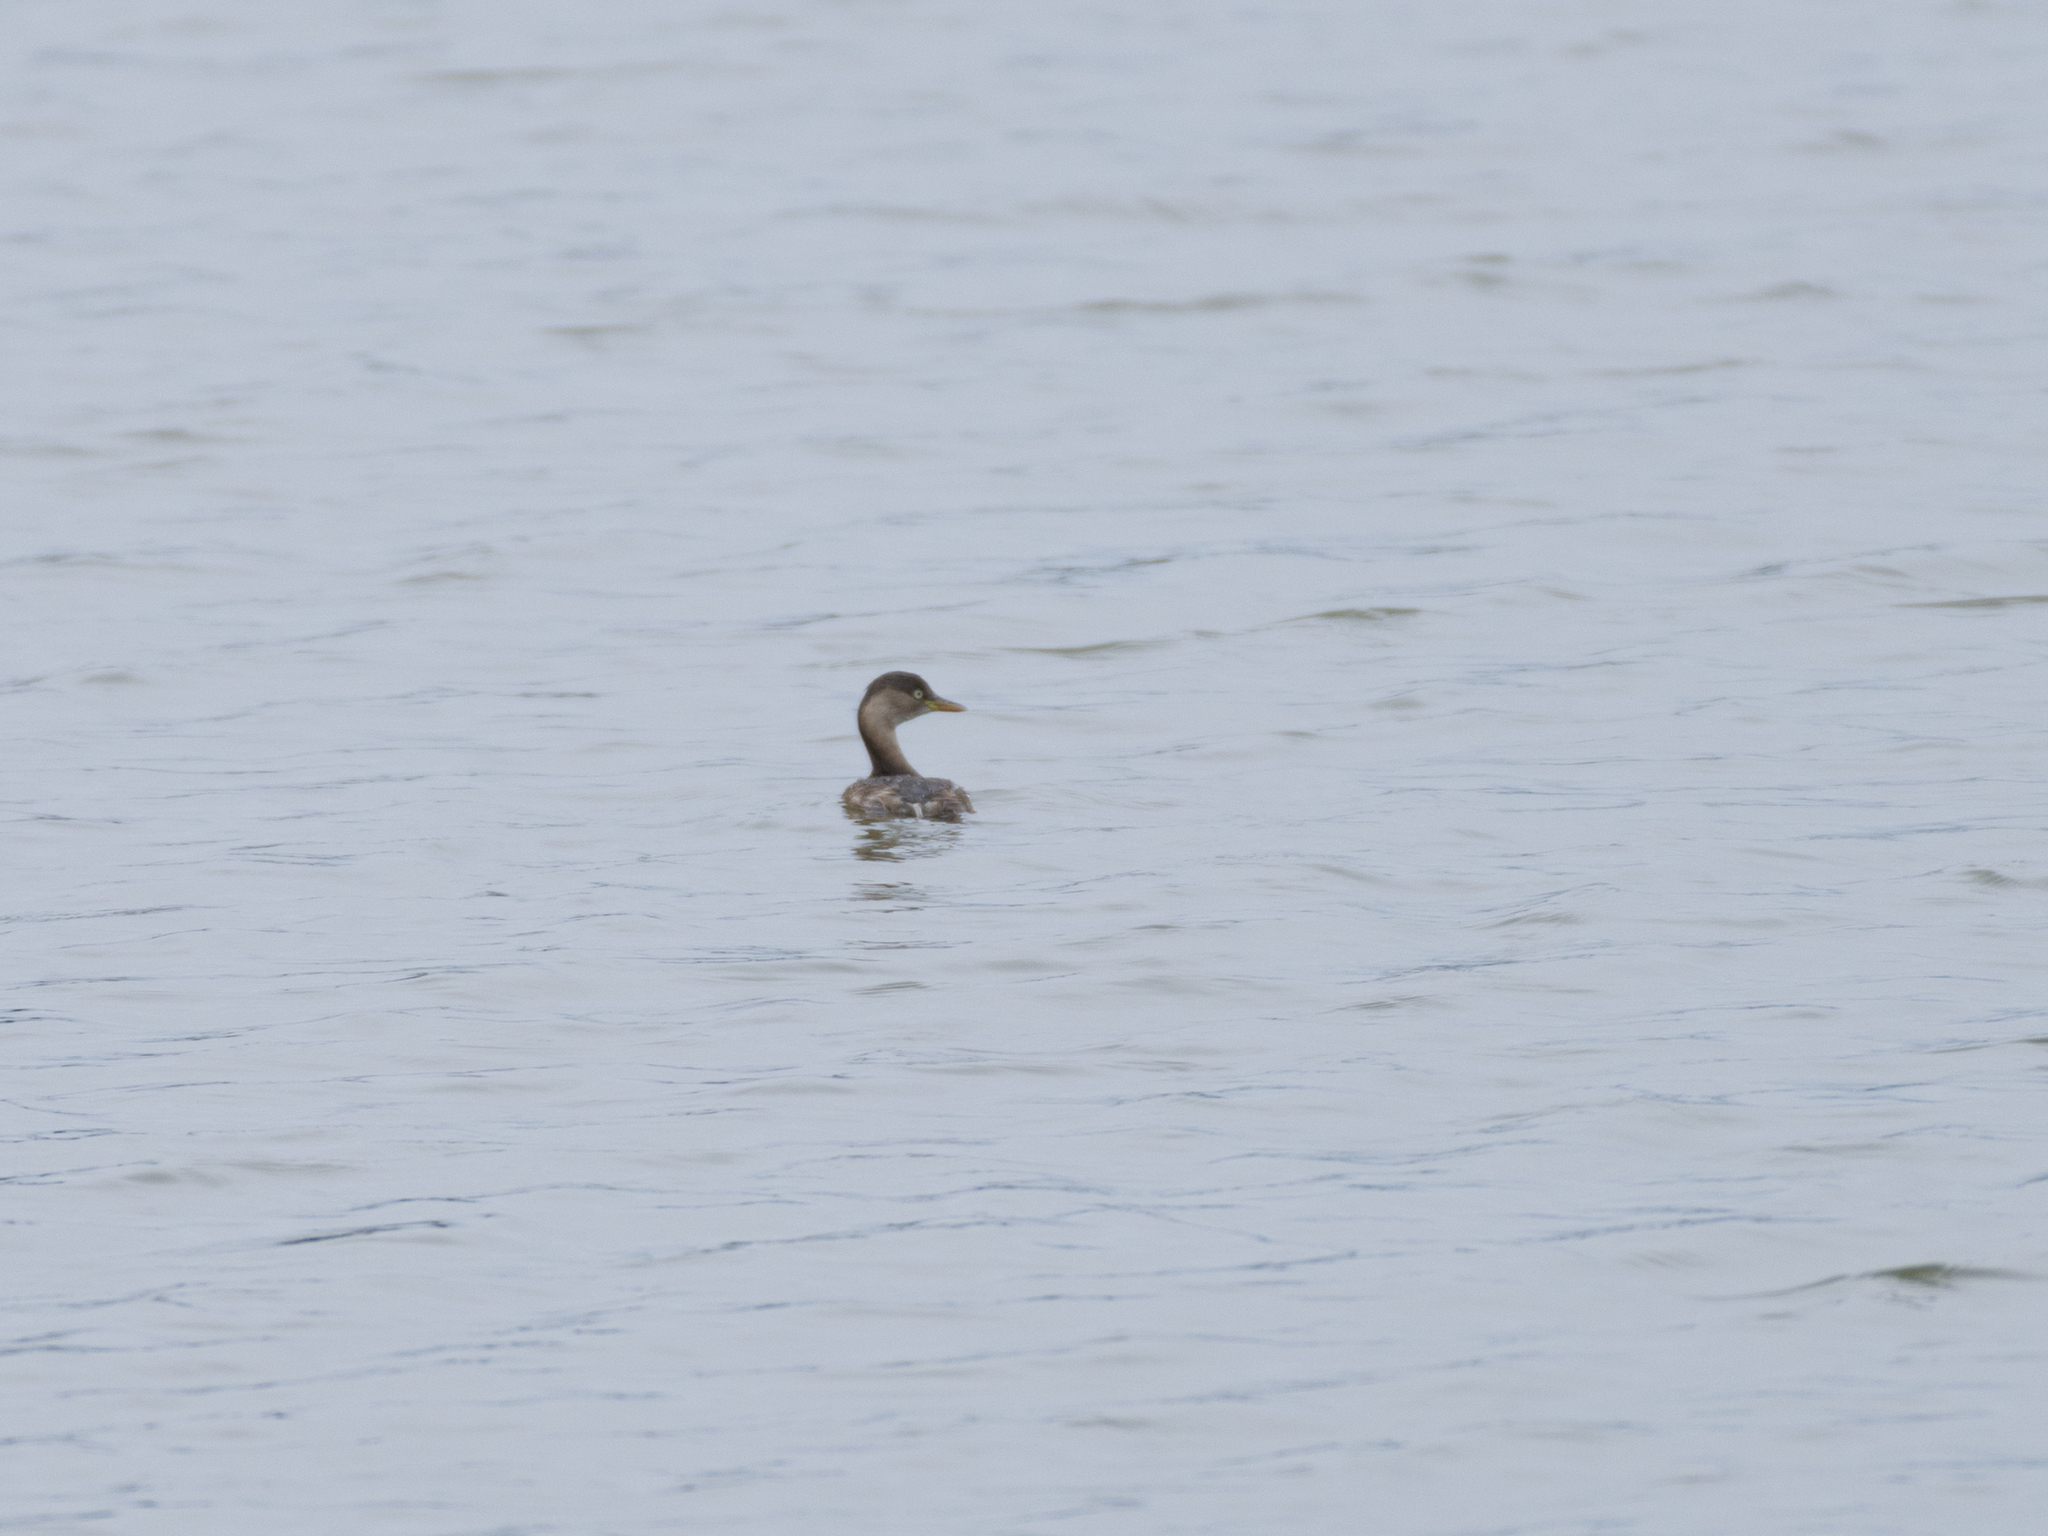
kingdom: Animalia
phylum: Chordata
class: Aves
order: Podicipediformes
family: Podicipedidae
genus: Tachybaptus
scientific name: Tachybaptus ruficollis
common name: Little grebe
